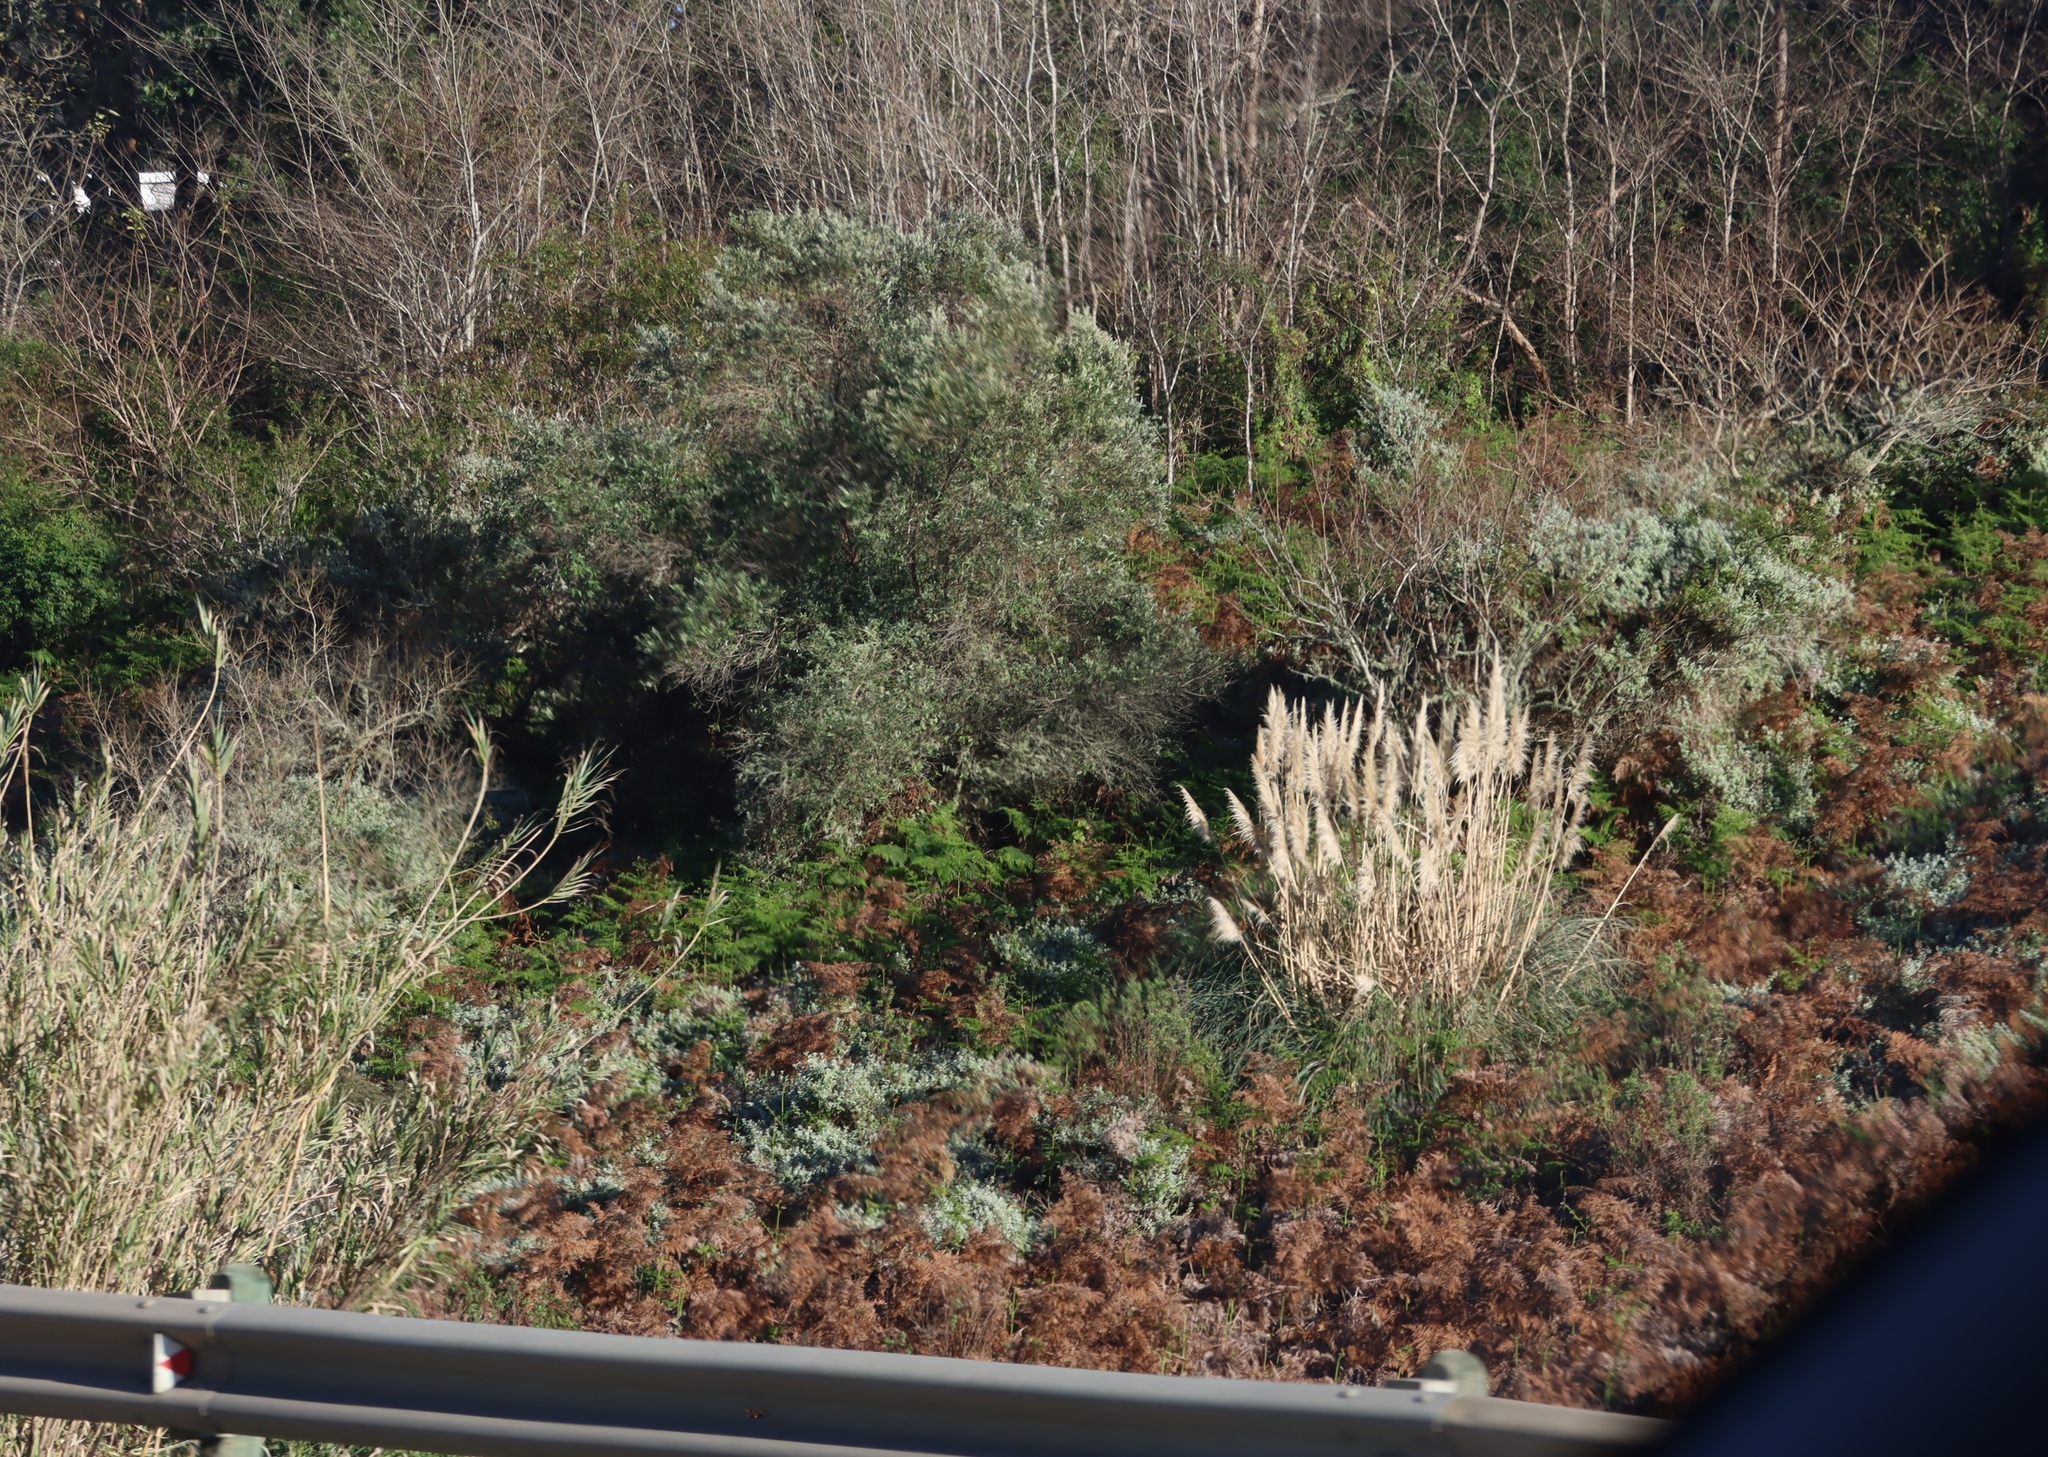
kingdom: Plantae
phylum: Tracheophyta
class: Liliopsida
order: Poales
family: Poaceae
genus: Cortaderia
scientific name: Cortaderia selloana
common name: Uruguayan pampas grass
